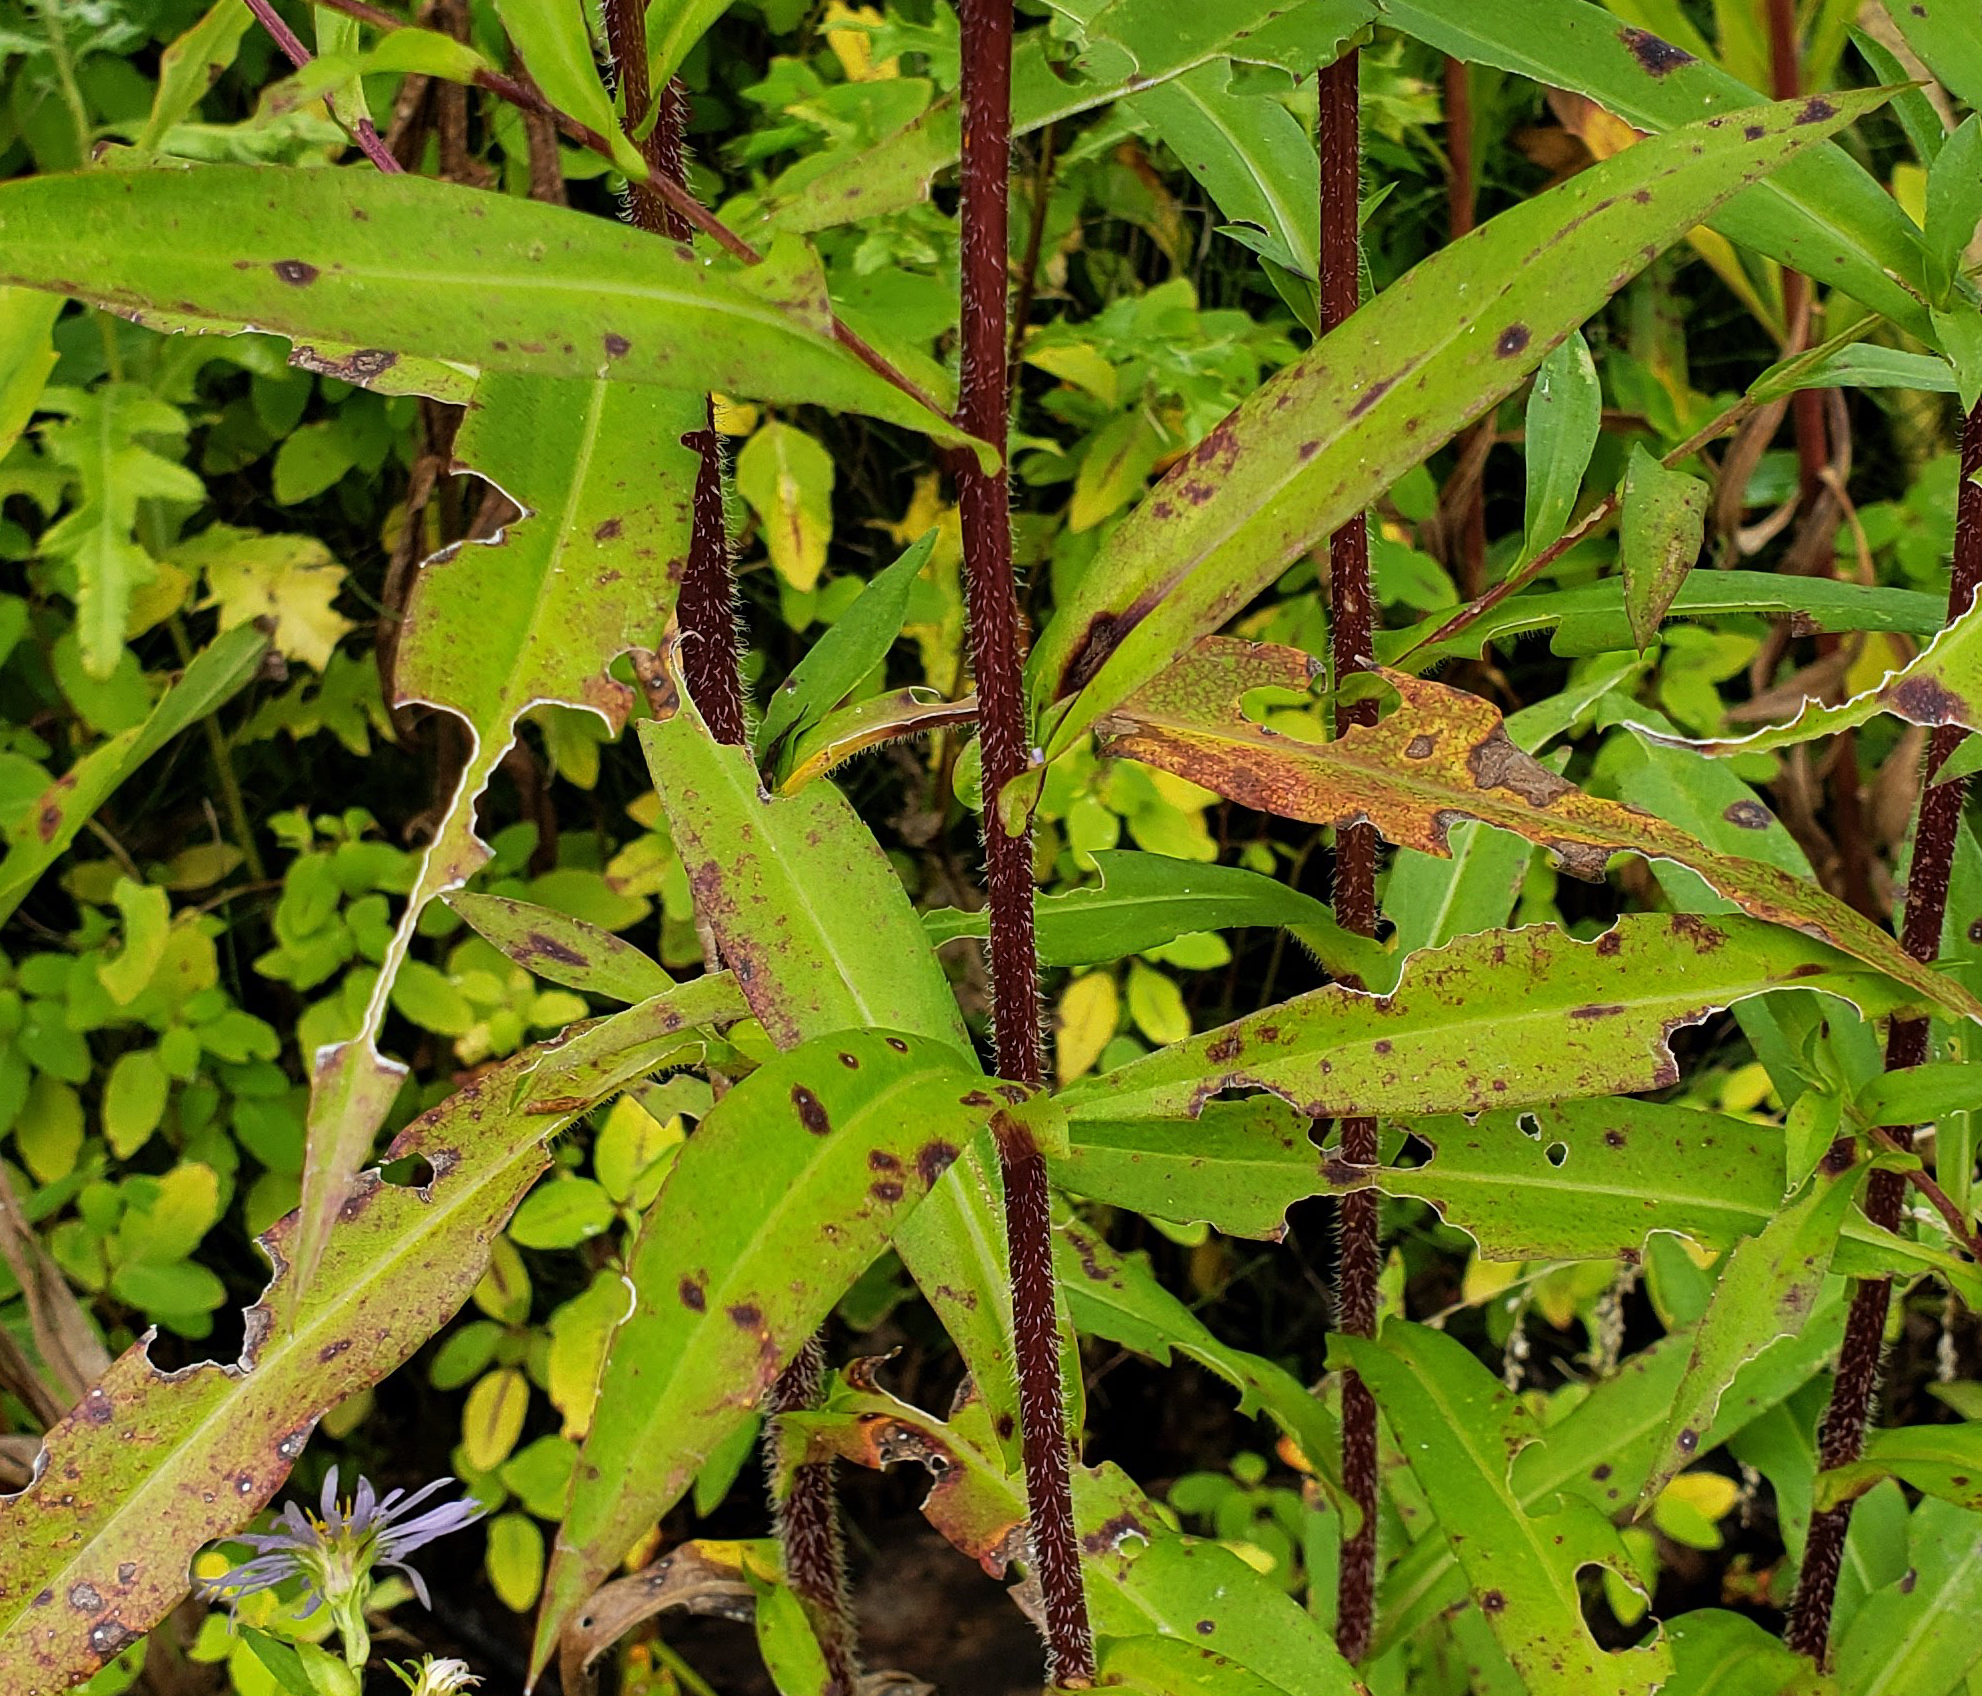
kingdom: Plantae
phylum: Tracheophyta
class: Magnoliopsida
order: Asterales
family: Asteraceae
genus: Symphyotrichum
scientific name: Symphyotrichum puniceum
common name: Bog aster
